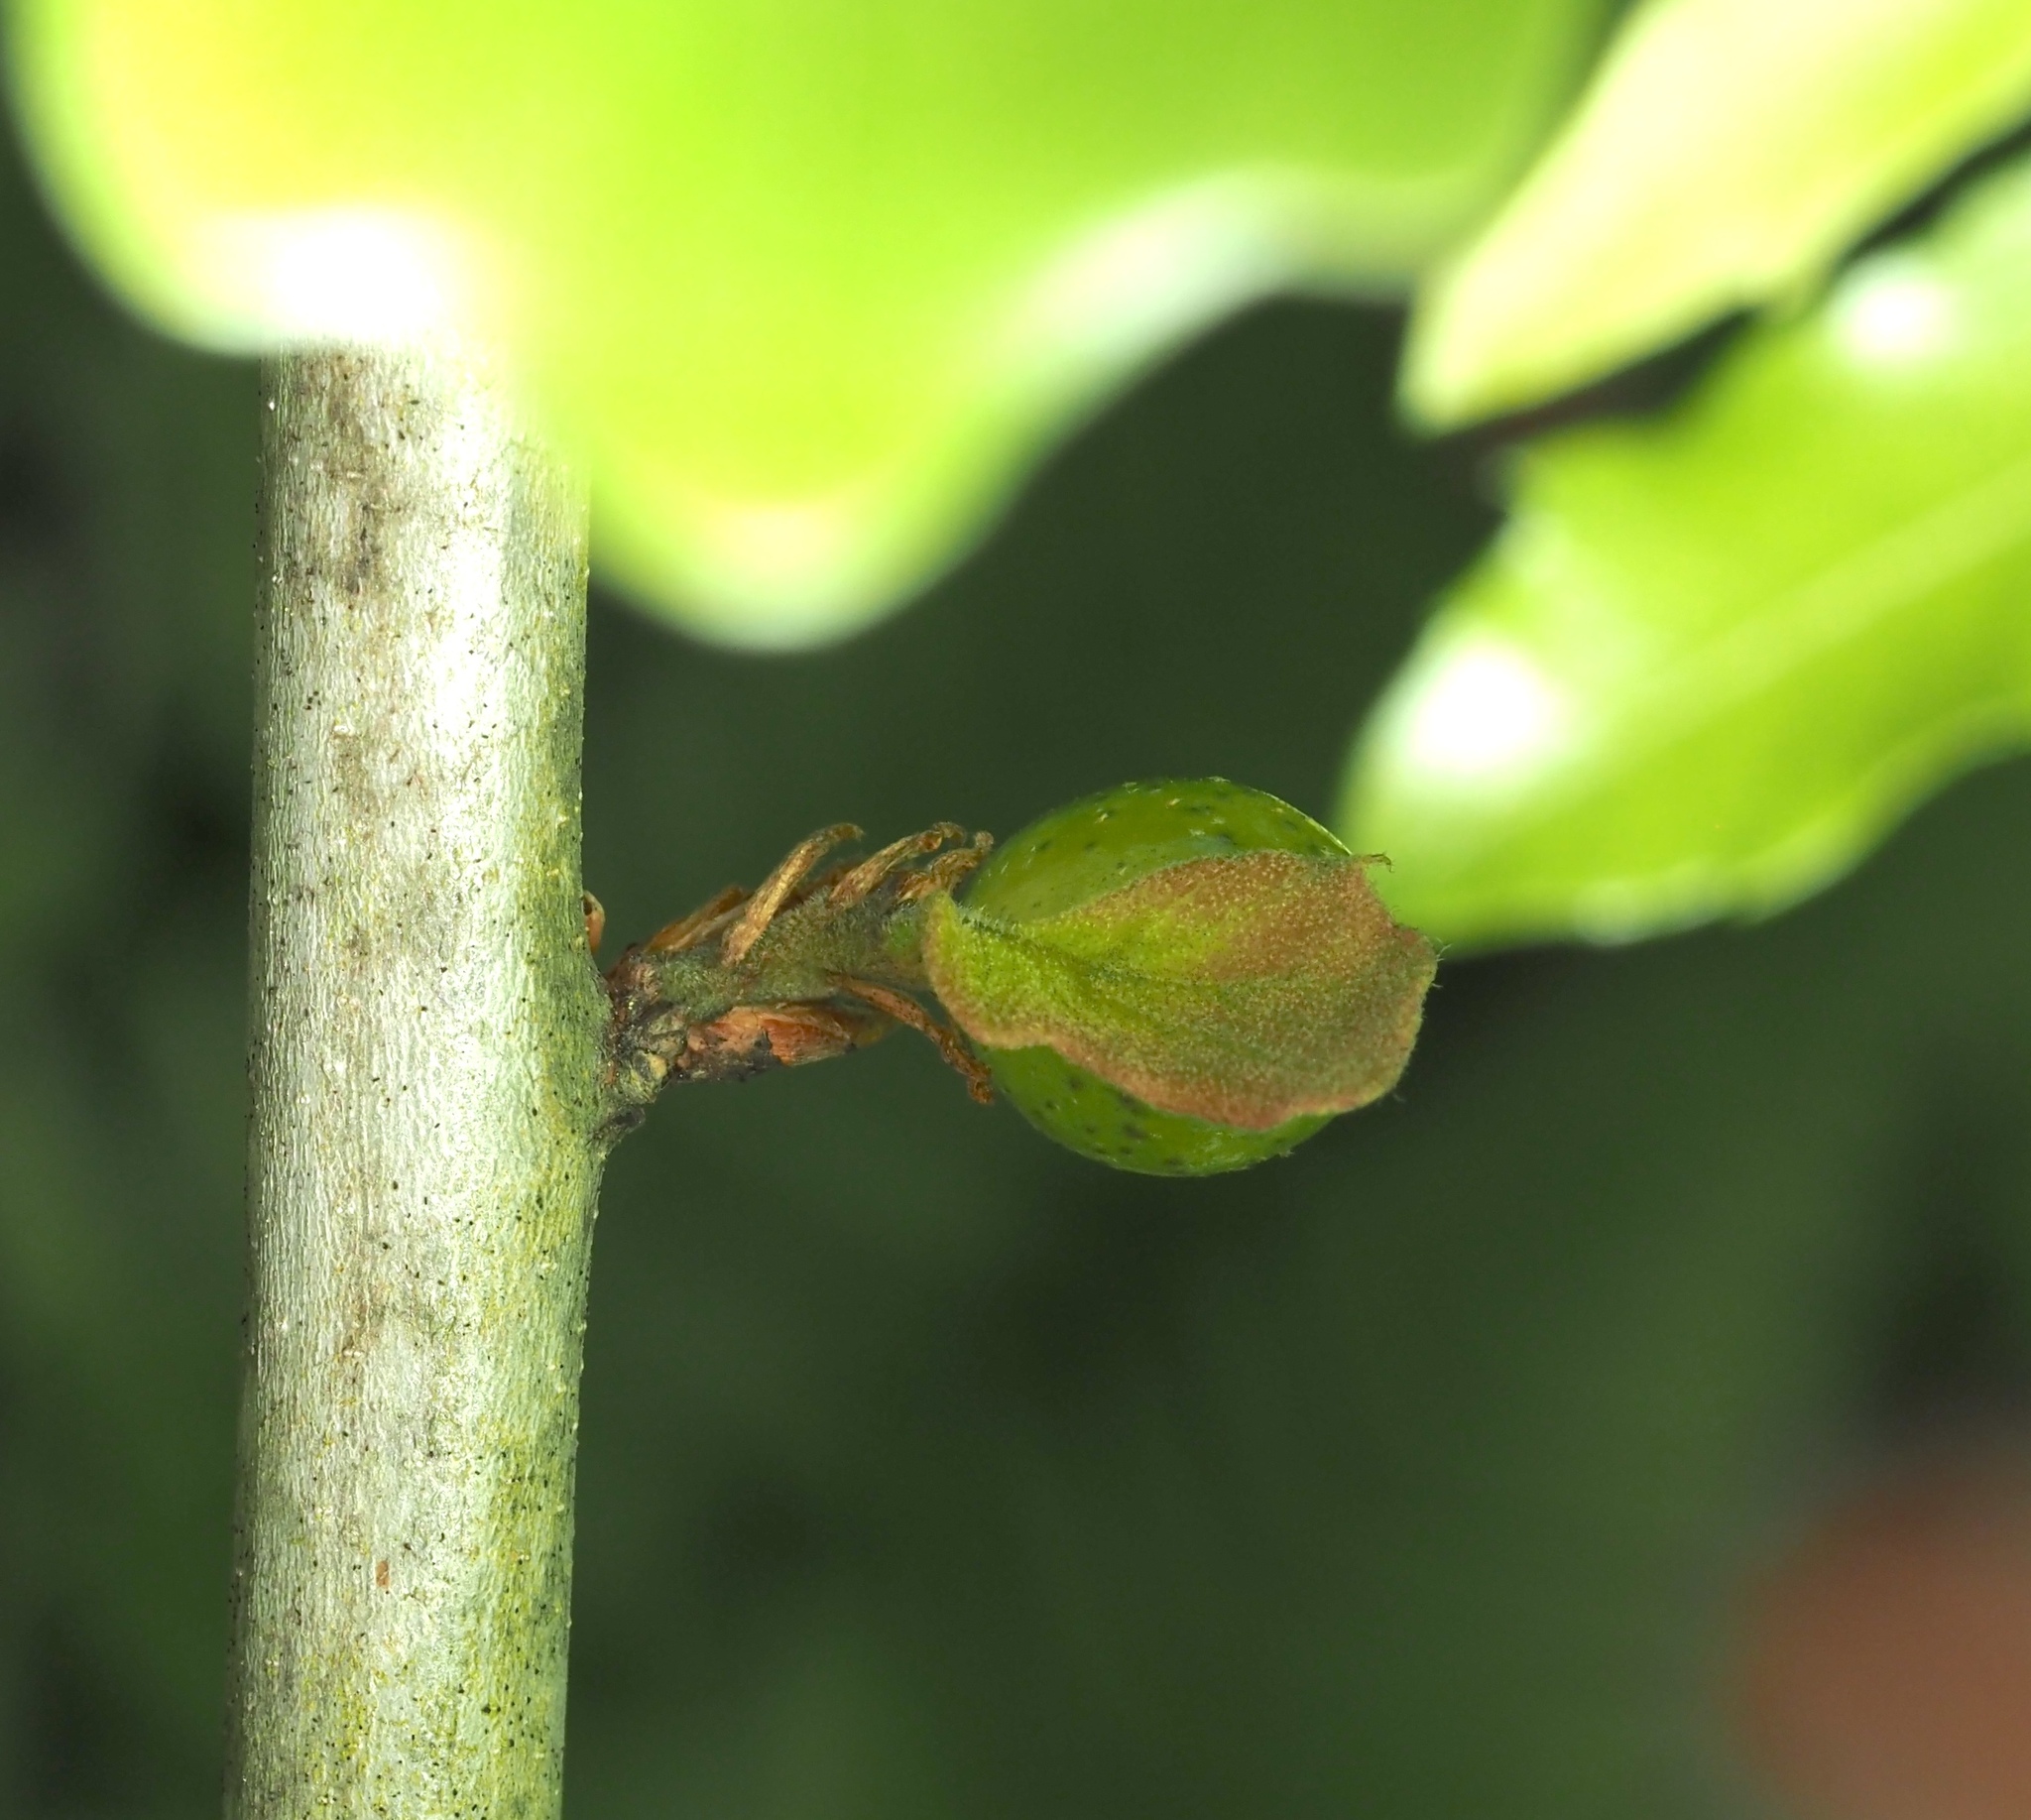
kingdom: Animalia
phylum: Arthropoda
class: Insecta
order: Hymenoptera
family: Cynipidae
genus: Amphibolips
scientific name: Amphibolips
